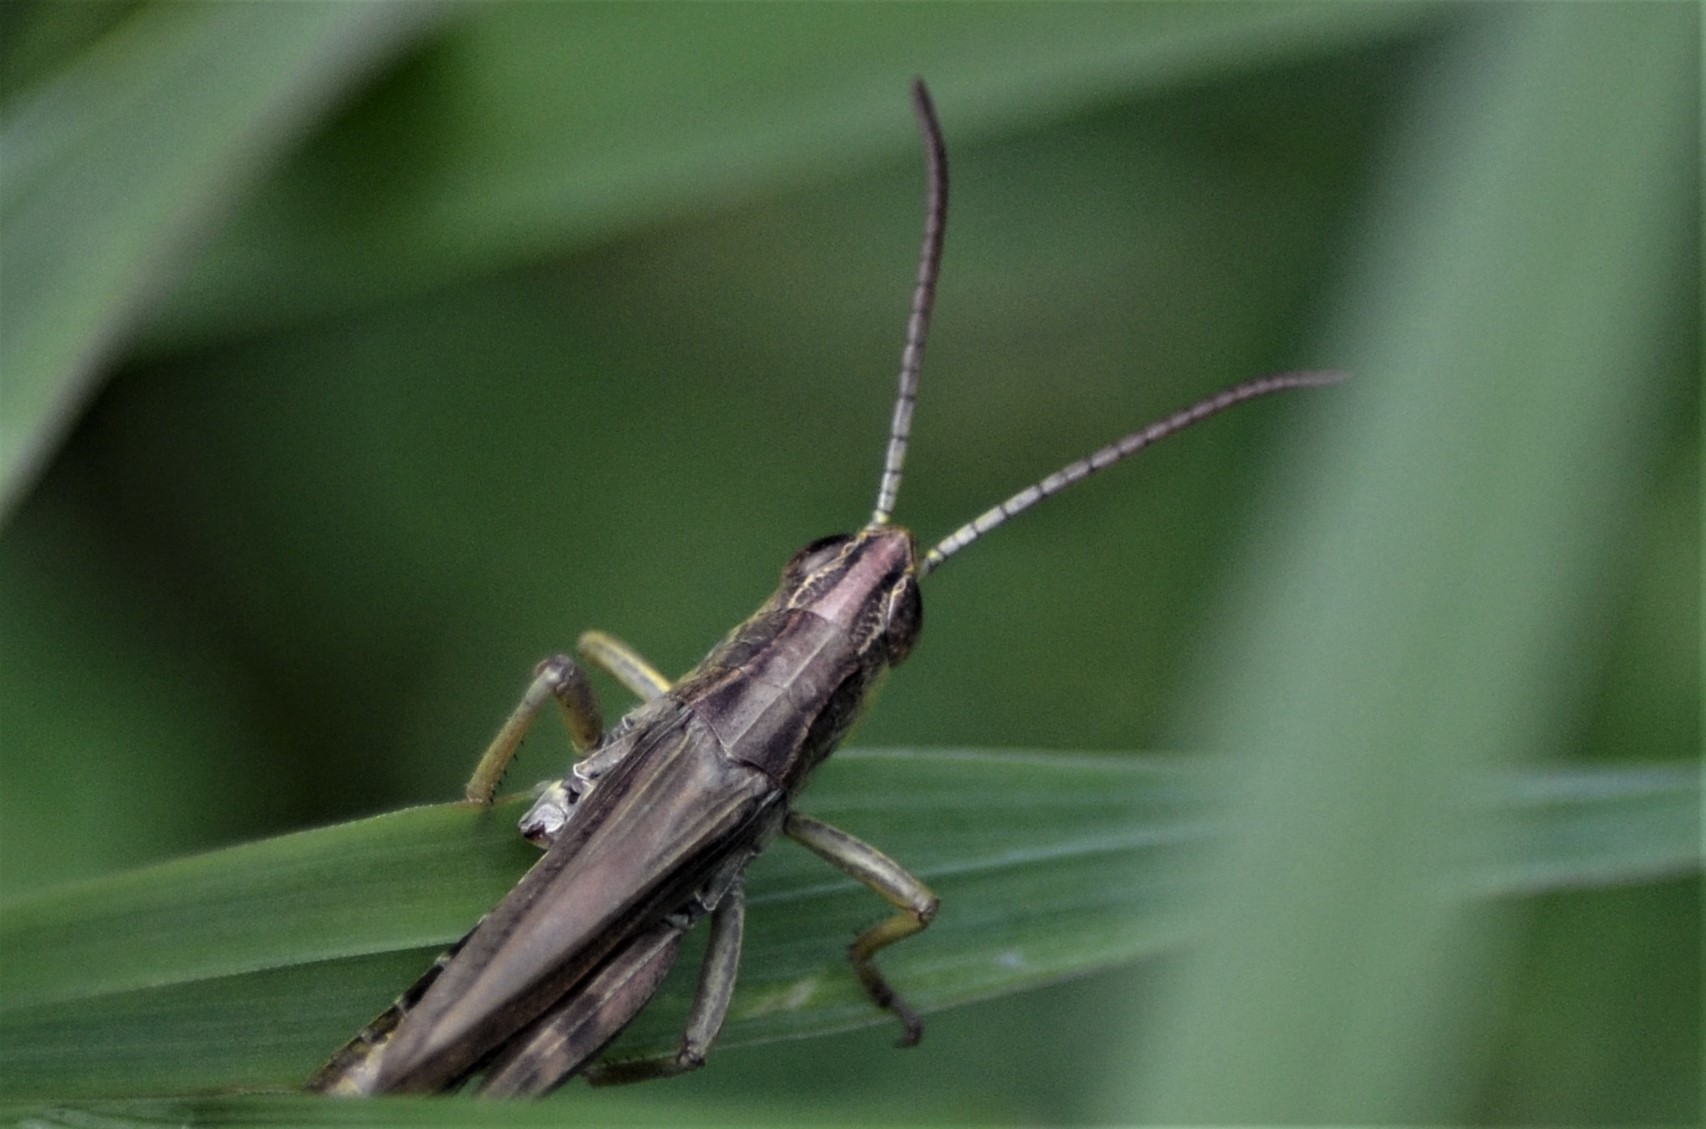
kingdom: Animalia
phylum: Arthropoda
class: Insecta
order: Orthoptera
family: Acrididae
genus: Pseudochorthippus
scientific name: Pseudochorthippus parallelus
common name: Meadow grasshopper
